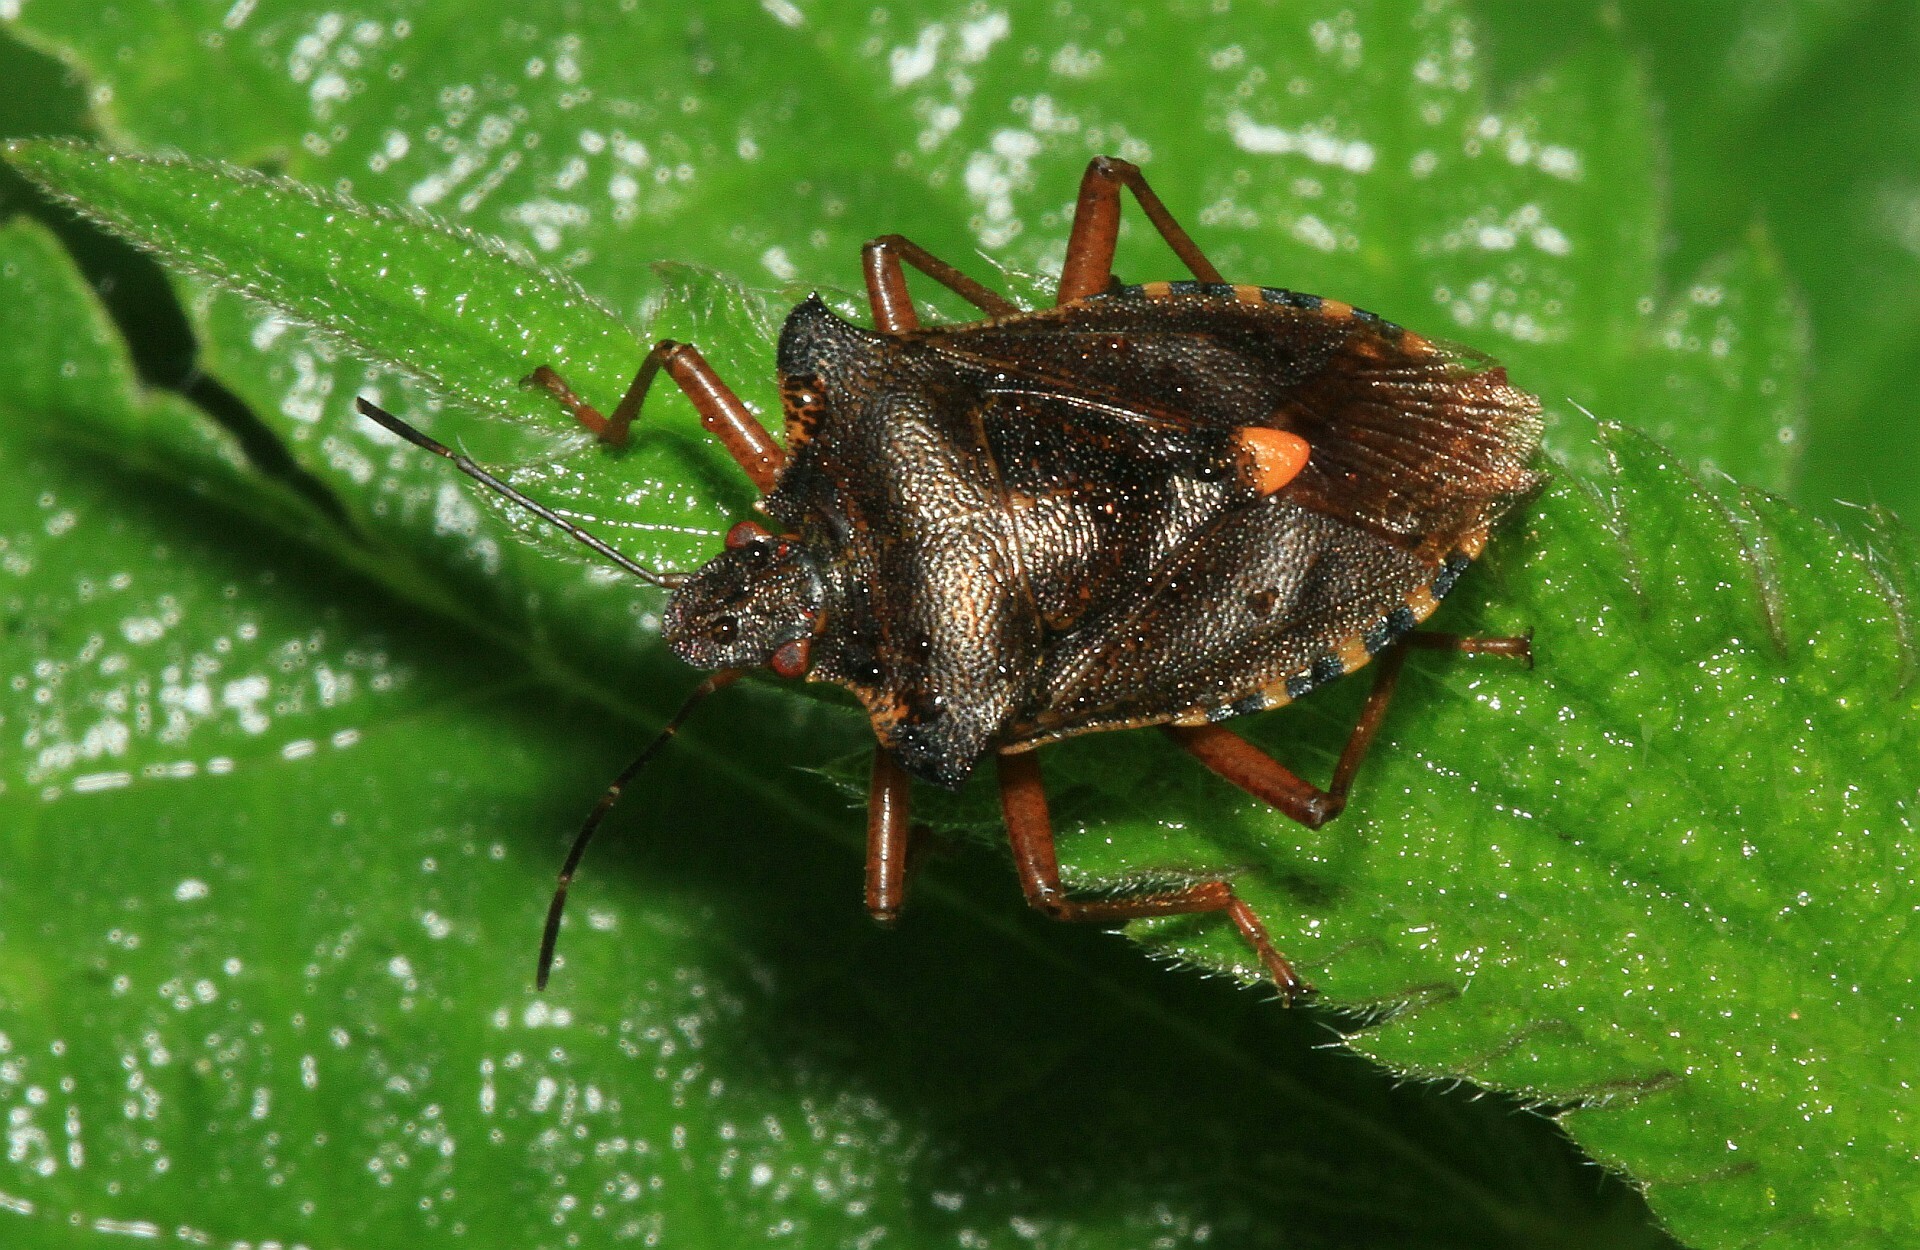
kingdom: Animalia
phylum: Arthropoda
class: Insecta
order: Hemiptera
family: Pentatomidae
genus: Pentatoma
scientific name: Pentatoma rufipes
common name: Forest bug
